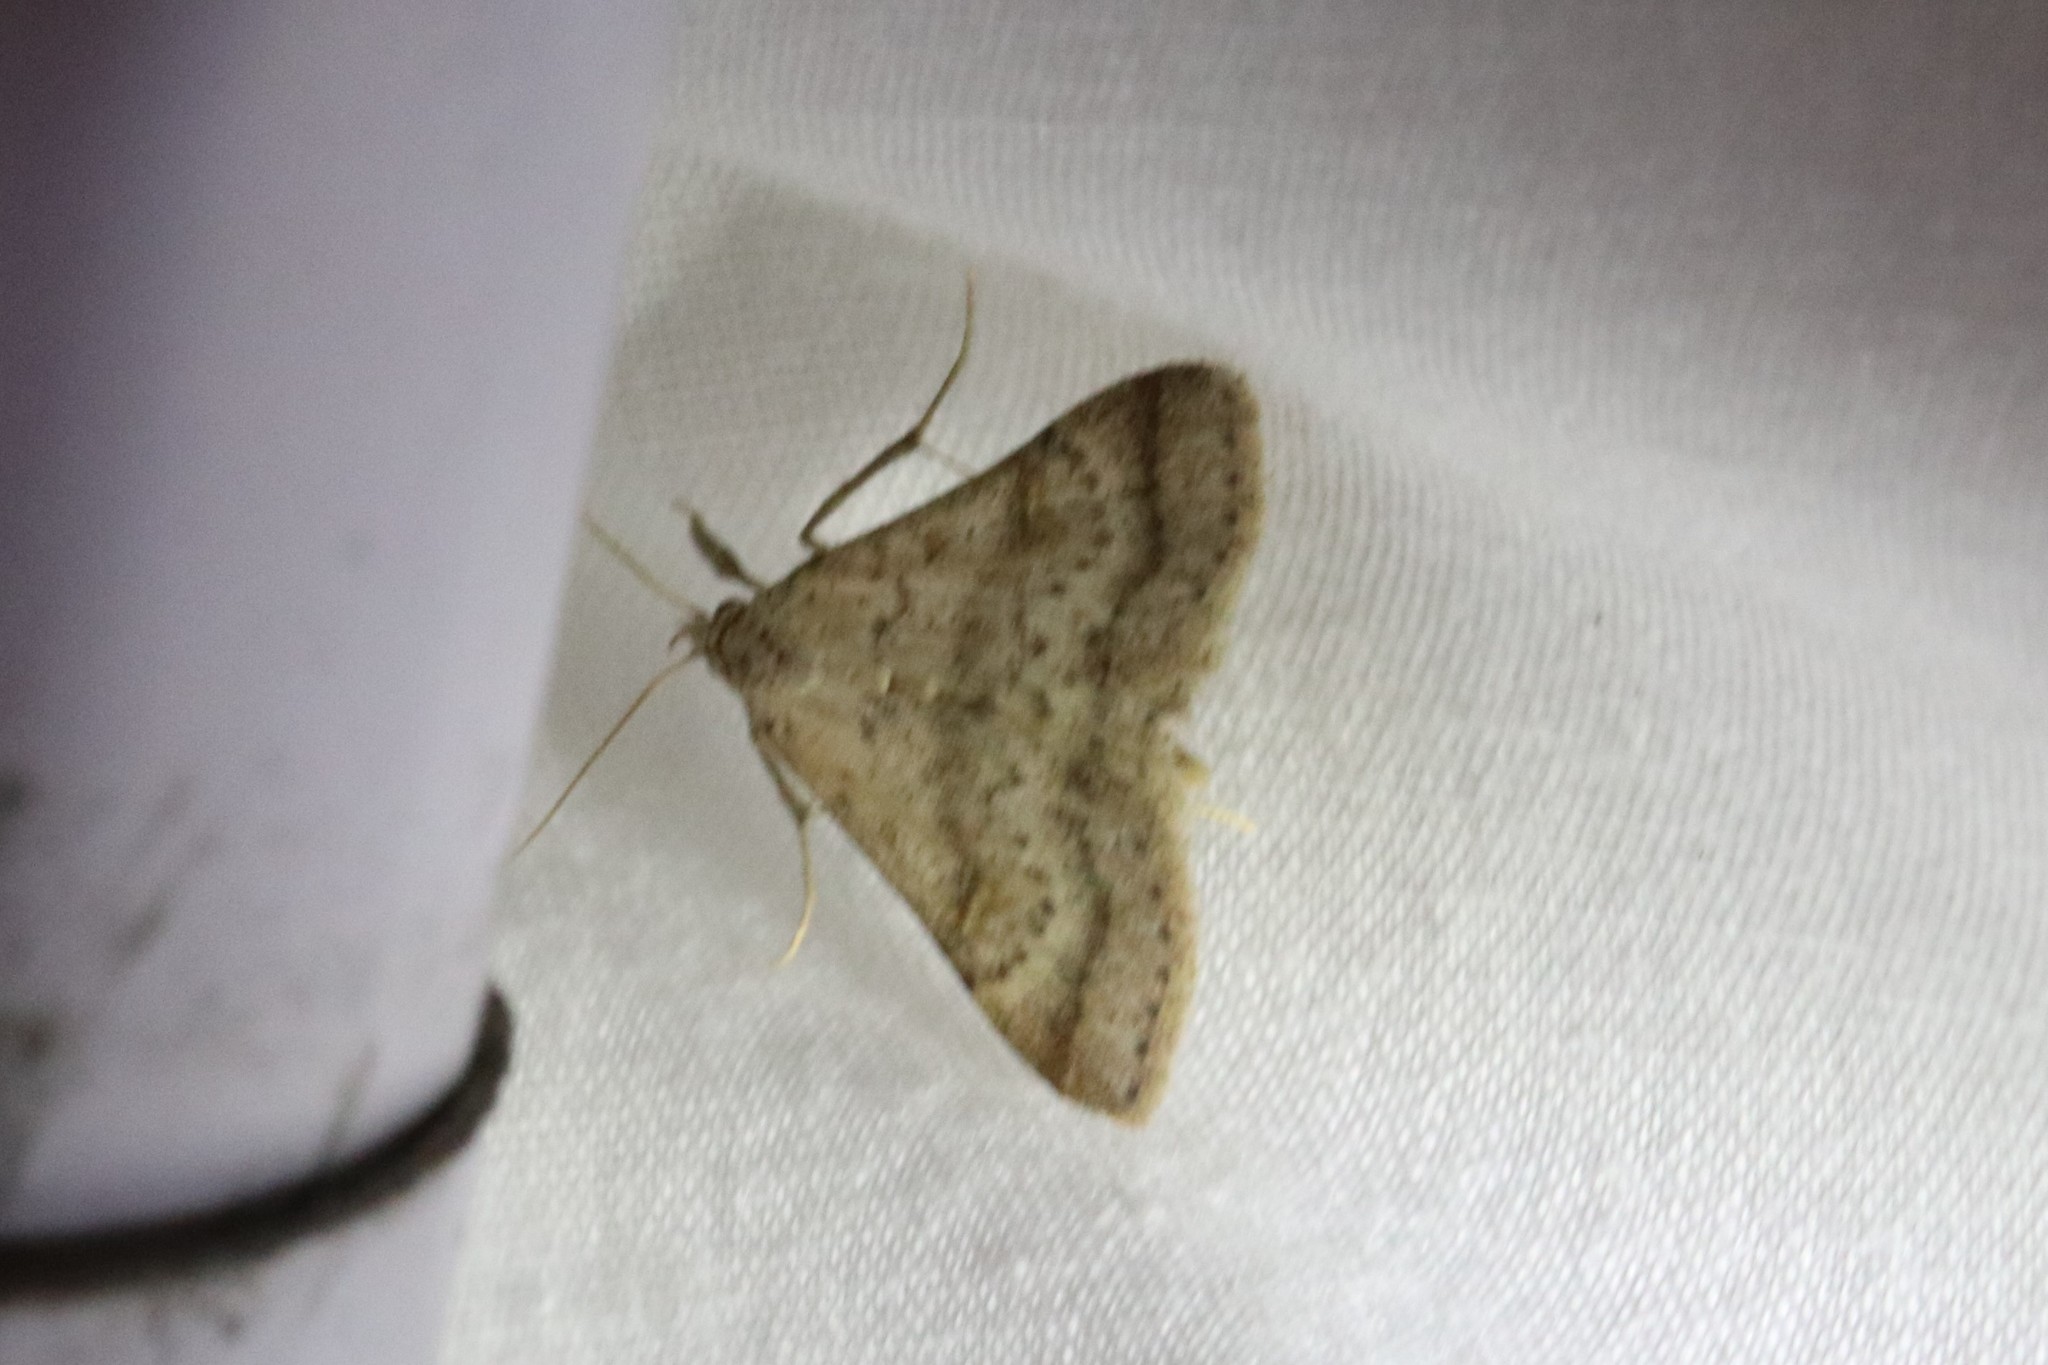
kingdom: Animalia
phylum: Arthropoda
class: Insecta
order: Lepidoptera
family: Erebidae
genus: Bleptina
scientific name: Bleptina caradrinalis
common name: Bent-winged owlet
